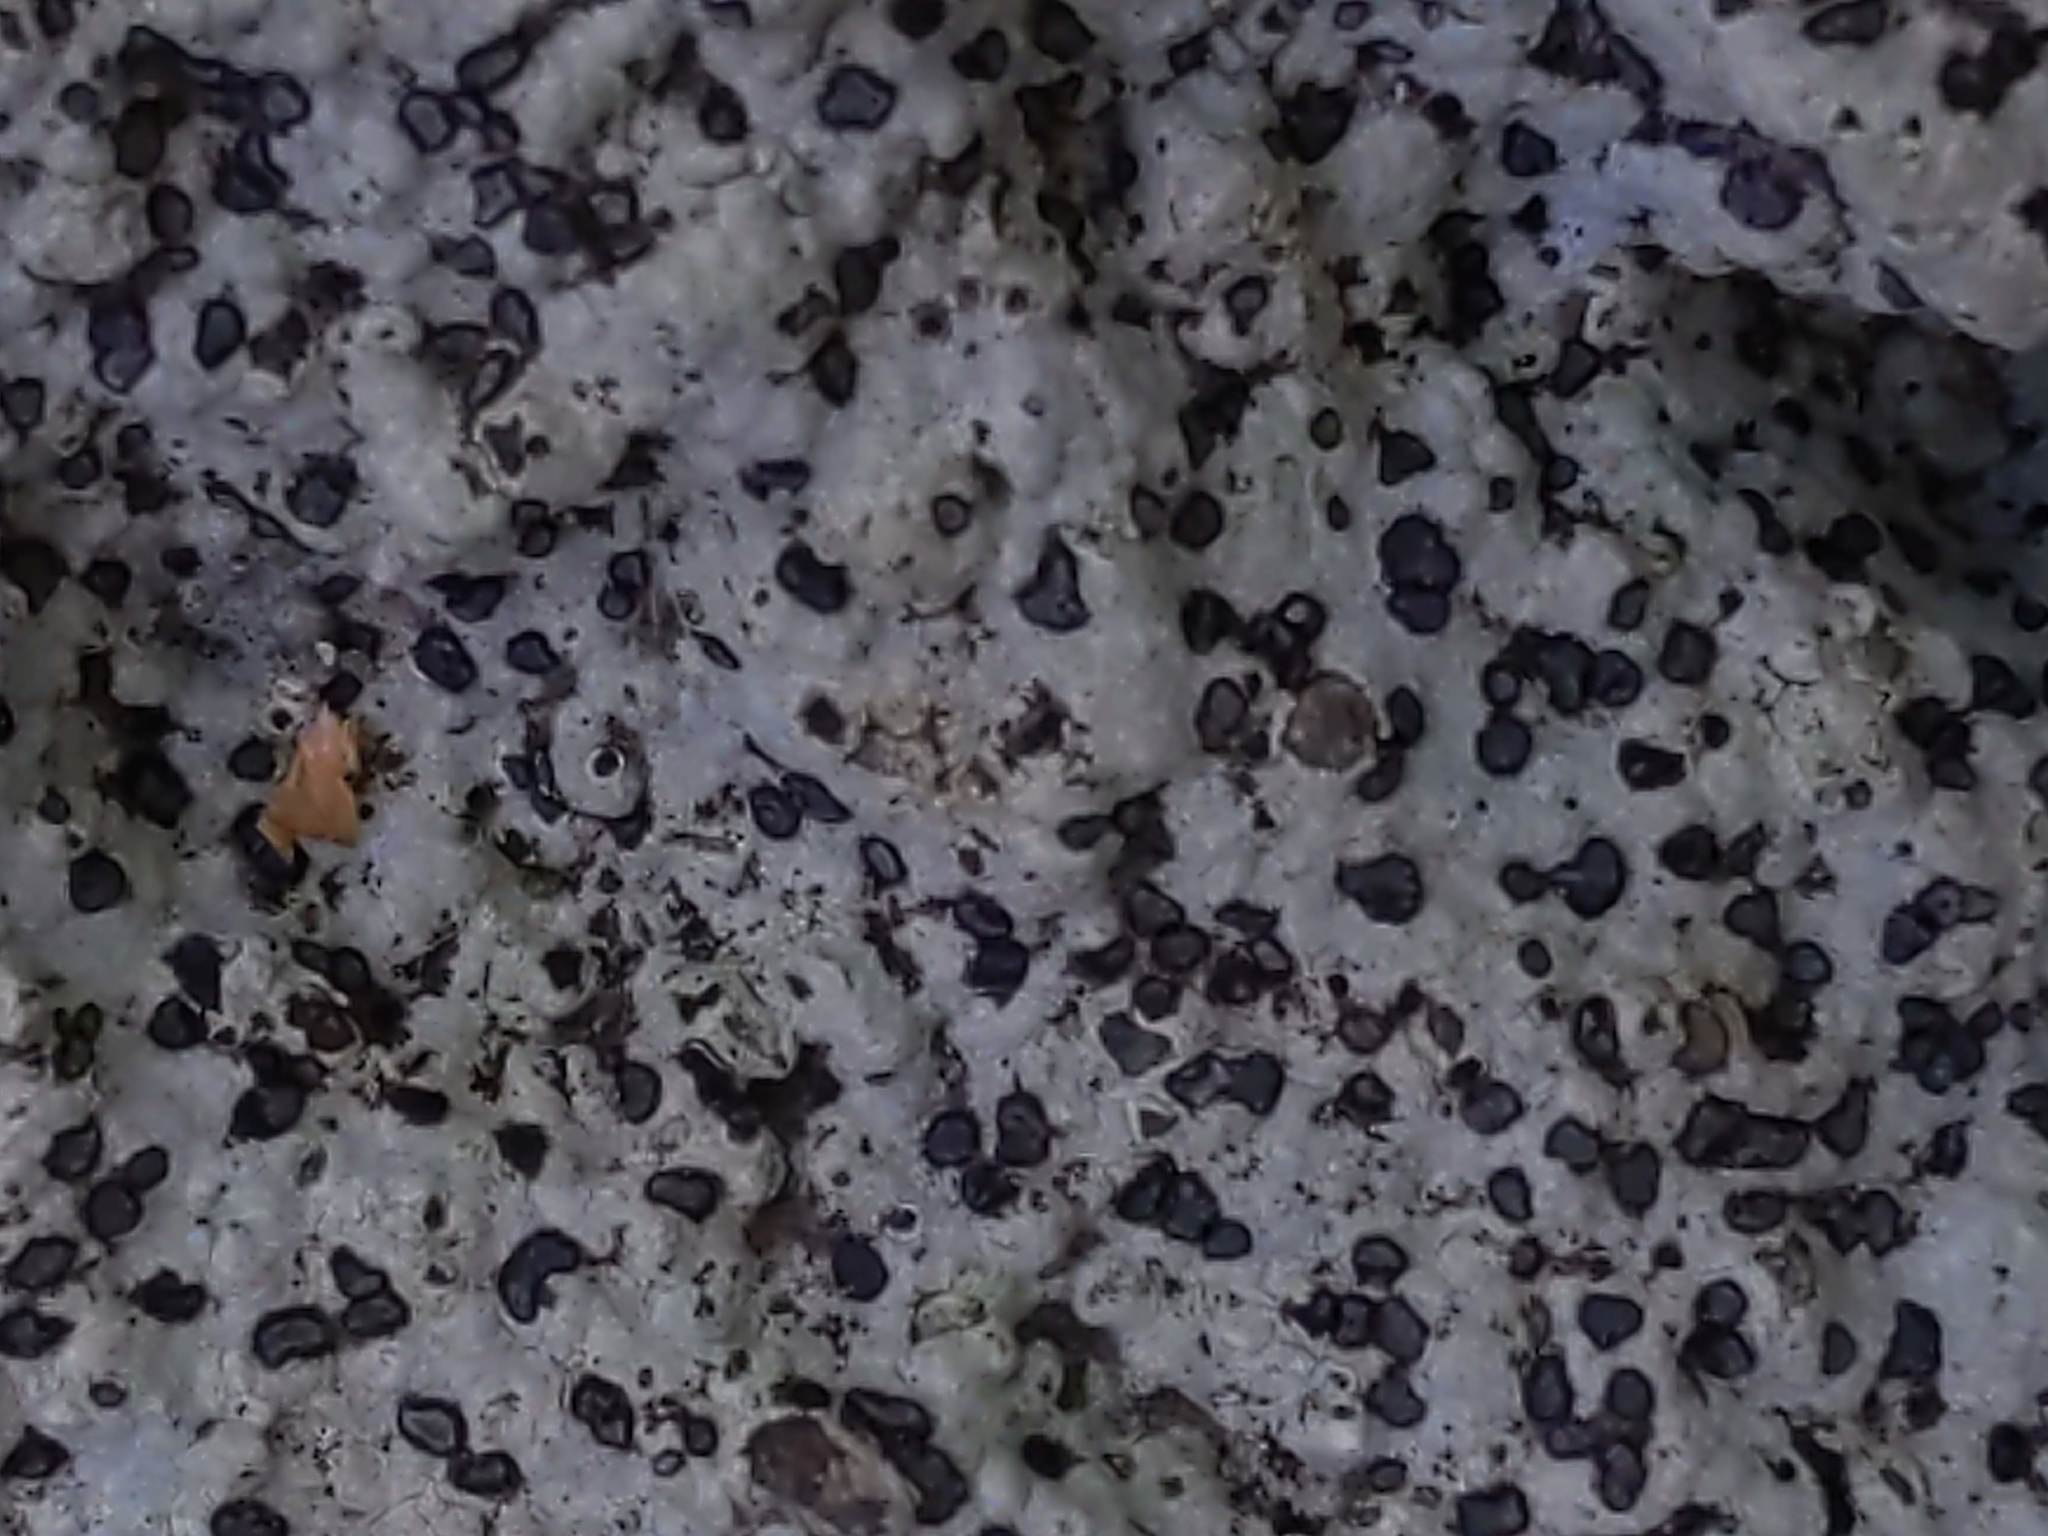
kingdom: Fungi
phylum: Ascomycota
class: Lecanoromycetes
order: Lecideales
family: Lecideaceae
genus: Porpidia
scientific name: Porpidia albocaerulescens
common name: Smokey-eyed boulder lichen
